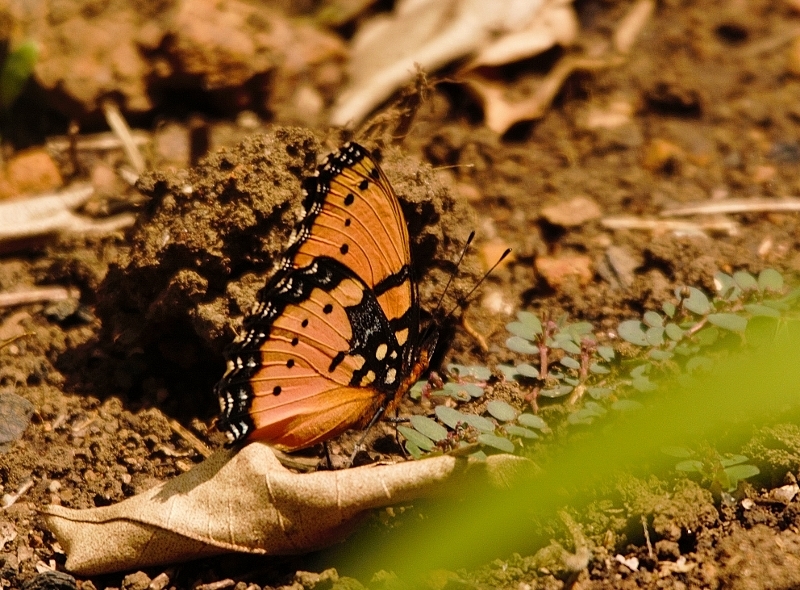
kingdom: Animalia
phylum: Arthropoda
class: Insecta
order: Lepidoptera
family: Nymphalidae
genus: Precis
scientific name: Precis octavia
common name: Gaudy commodore
